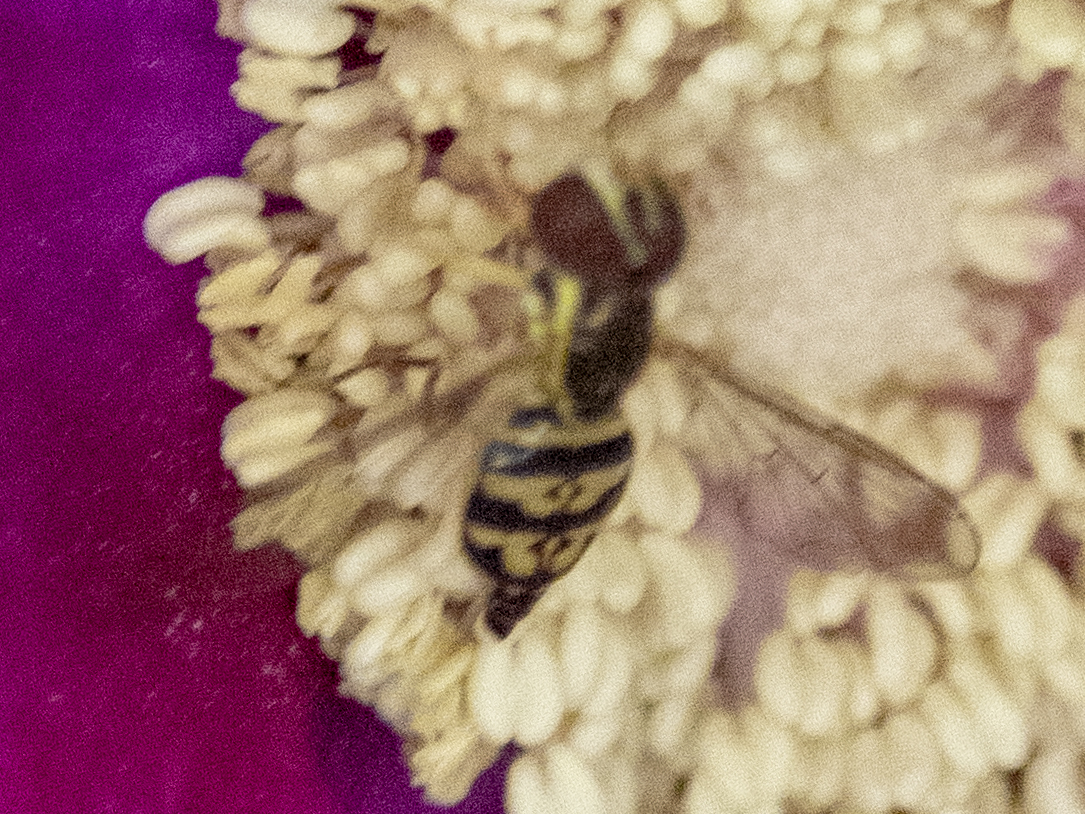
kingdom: Animalia
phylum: Arthropoda
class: Insecta
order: Diptera
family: Syrphidae
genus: Toxomerus
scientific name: Toxomerus geminatus
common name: Eastern calligrapher
